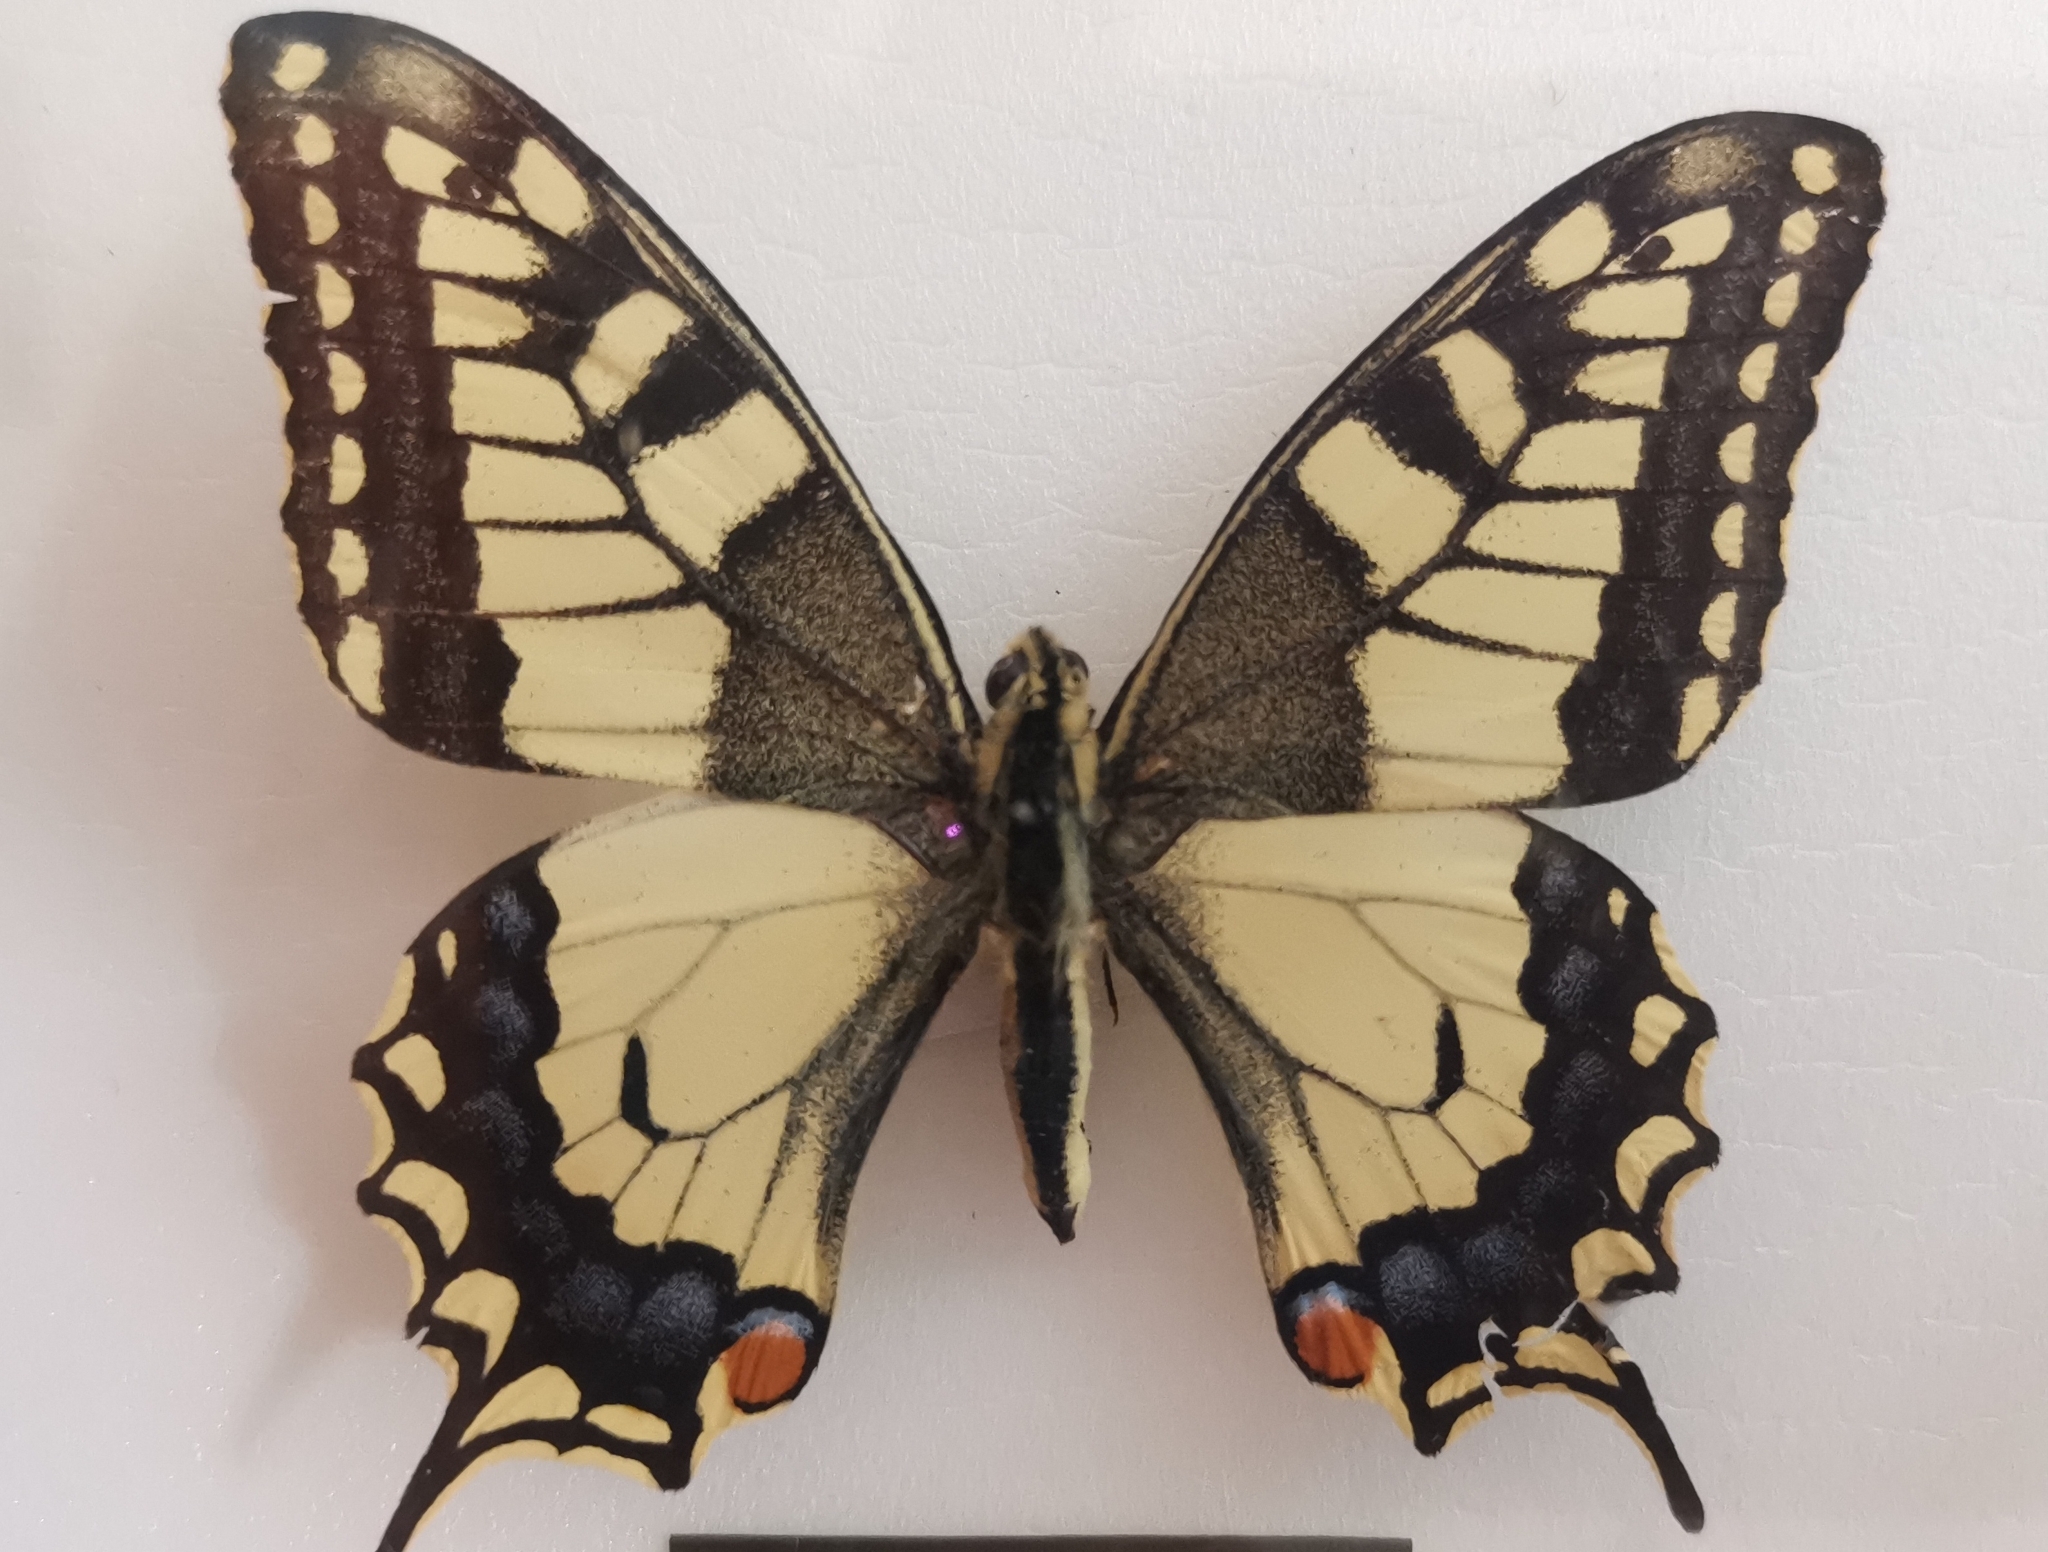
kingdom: Animalia
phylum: Arthropoda
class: Insecta
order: Lepidoptera
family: Papilionidae
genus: Papilio
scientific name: Papilio machaon
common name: Swallowtail
